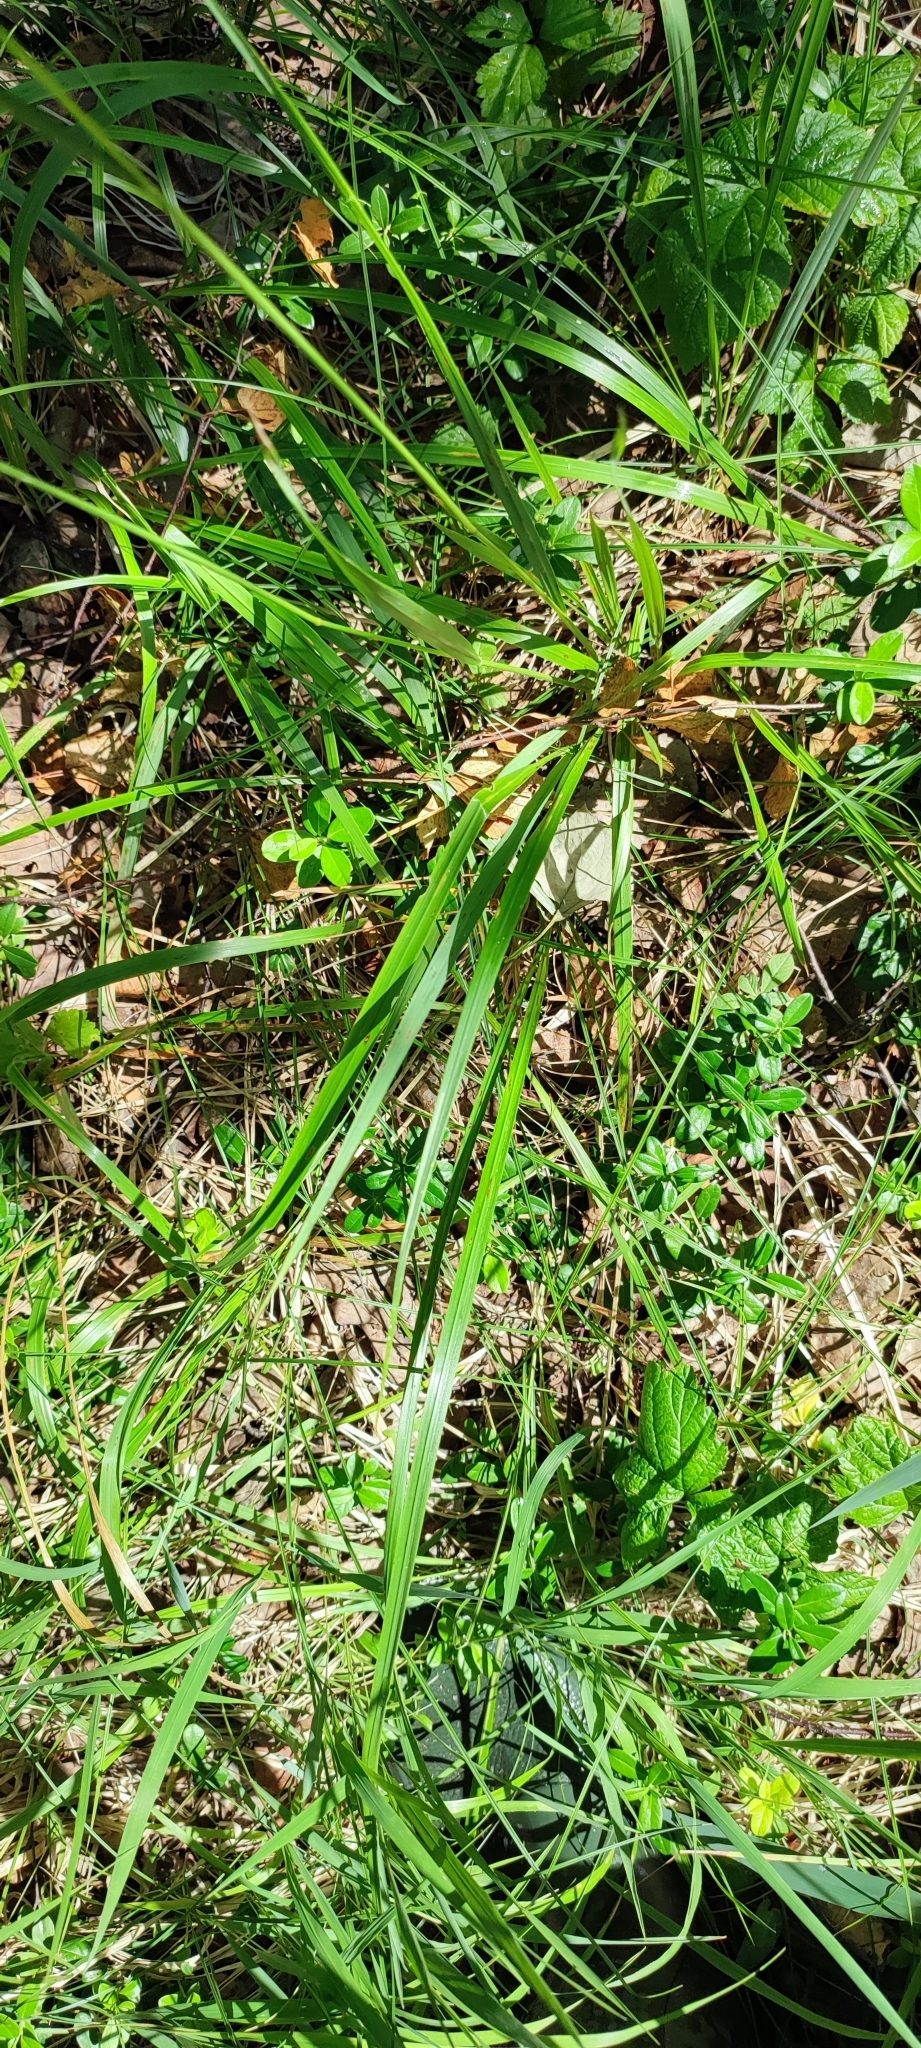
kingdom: Plantae
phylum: Tracheophyta
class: Liliopsida
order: Poales
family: Poaceae
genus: Calamagrostis
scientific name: Calamagrostis arundinacea
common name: Metskastik
